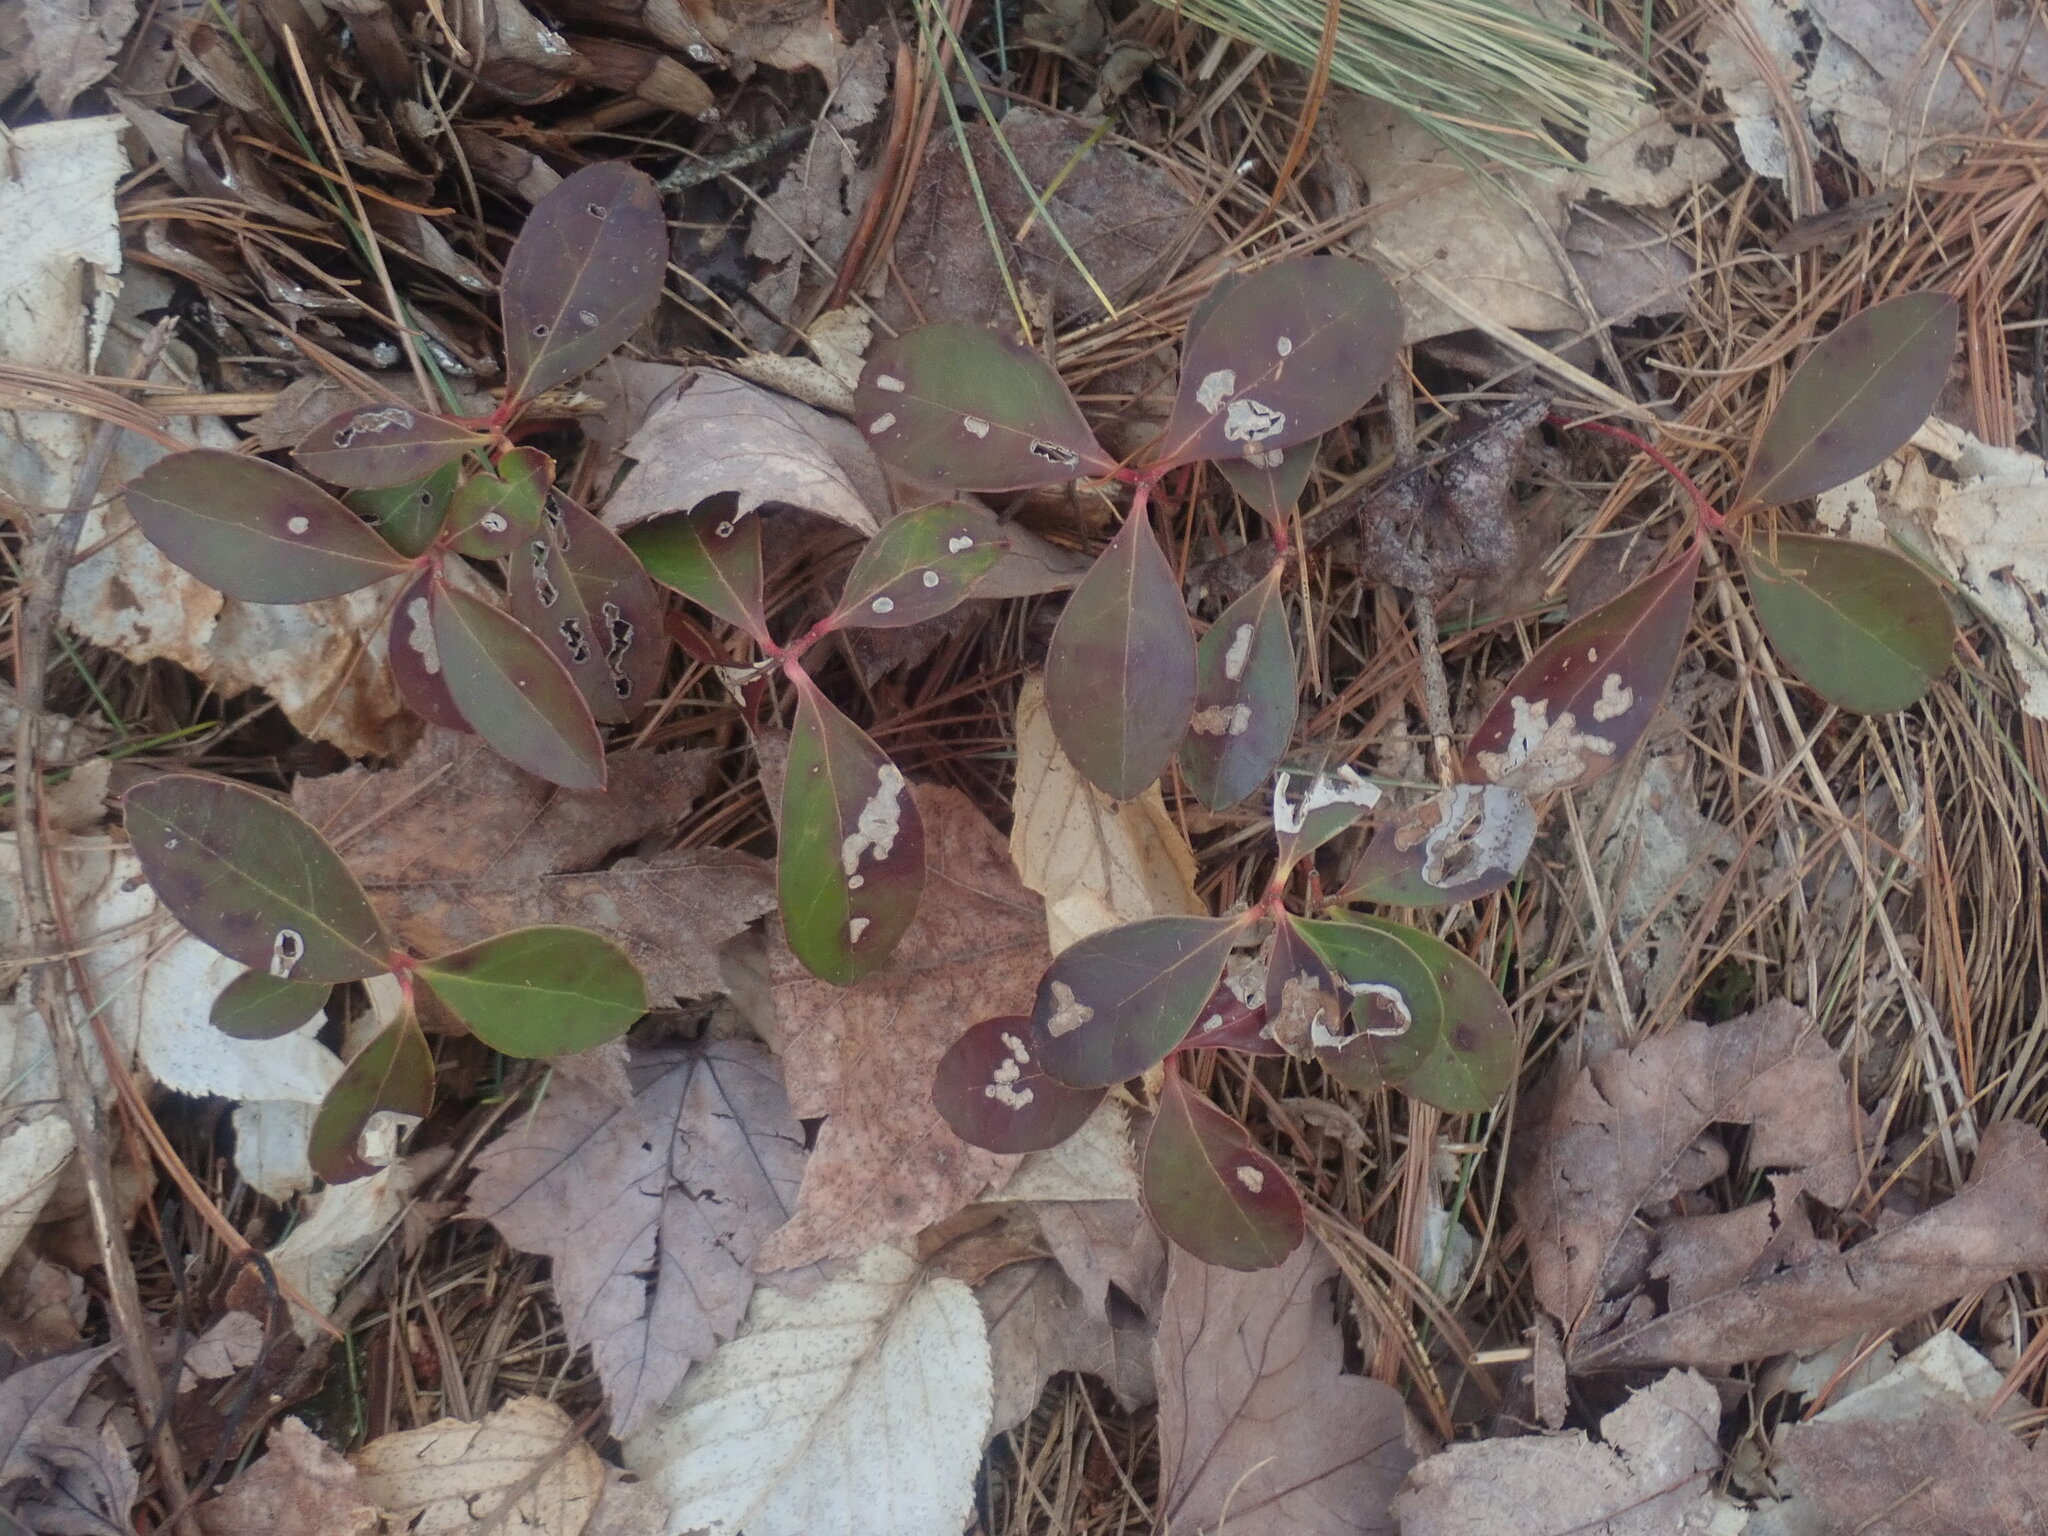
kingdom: Plantae
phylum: Tracheophyta
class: Magnoliopsida
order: Ericales
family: Ericaceae
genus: Gaultheria
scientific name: Gaultheria procumbens
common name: Checkerberry
